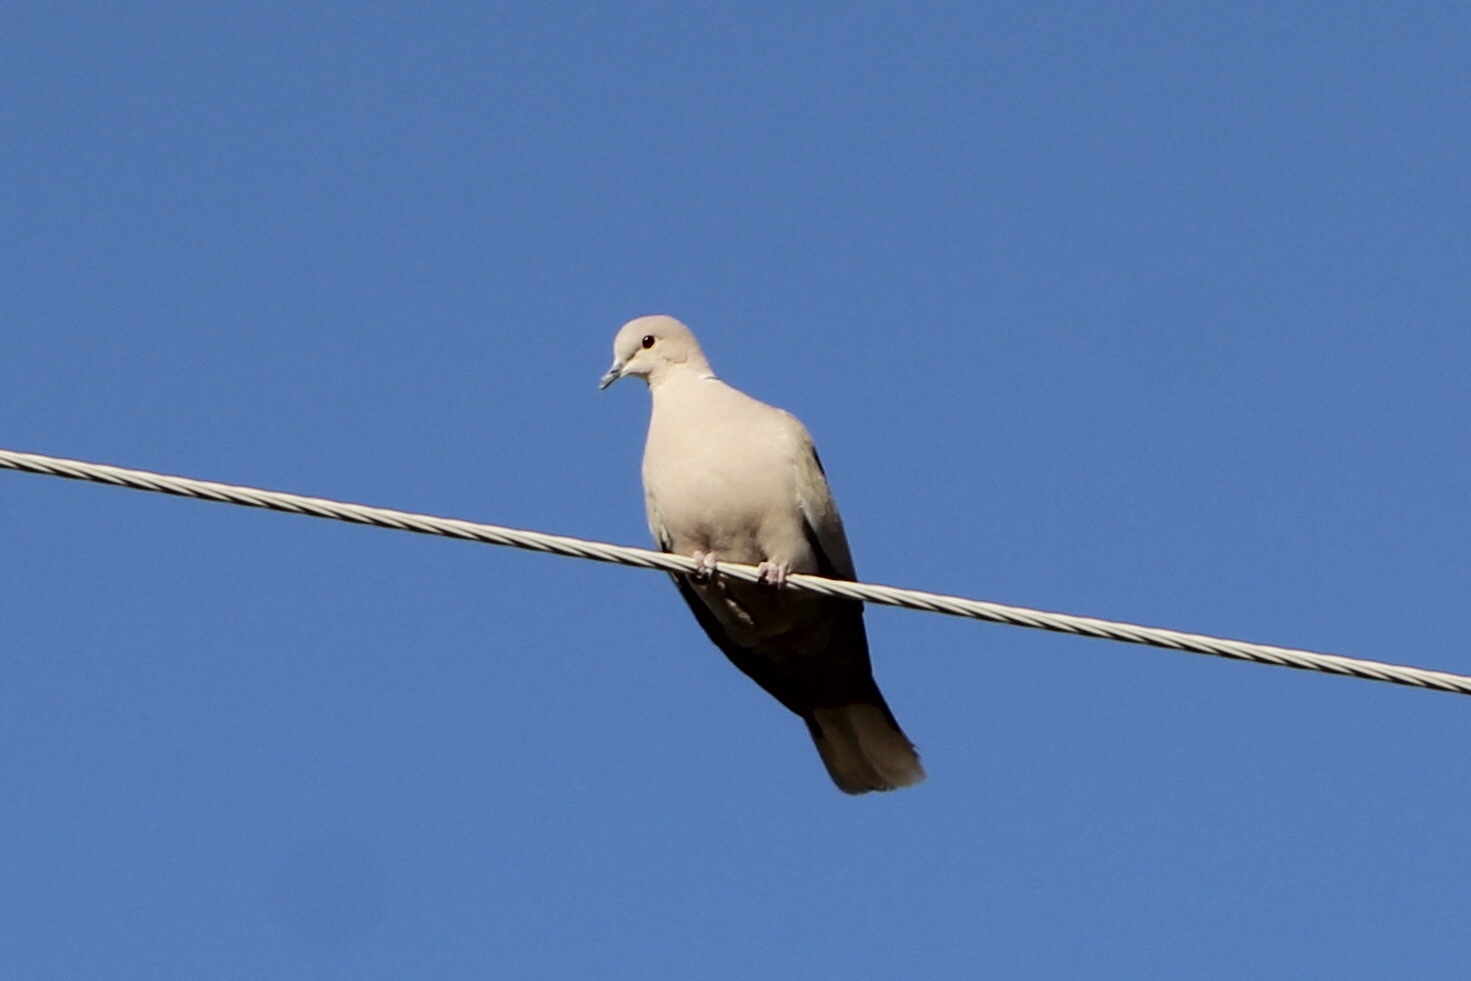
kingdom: Animalia
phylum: Chordata
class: Aves
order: Columbiformes
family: Columbidae
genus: Streptopelia
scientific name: Streptopelia decaocto
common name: Eurasian collared dove
